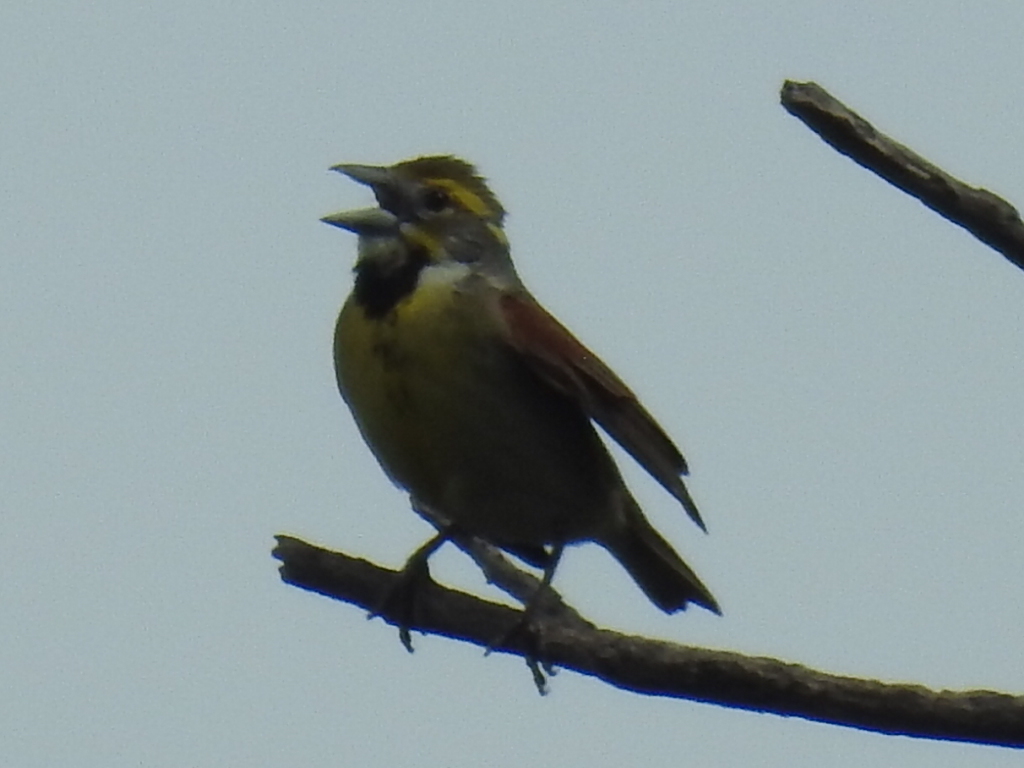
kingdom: Animalia
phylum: Chordata
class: Aves
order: Passeriformes
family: Cardinalidae
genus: Spiza
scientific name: Spiza americana
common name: Dickcissel
